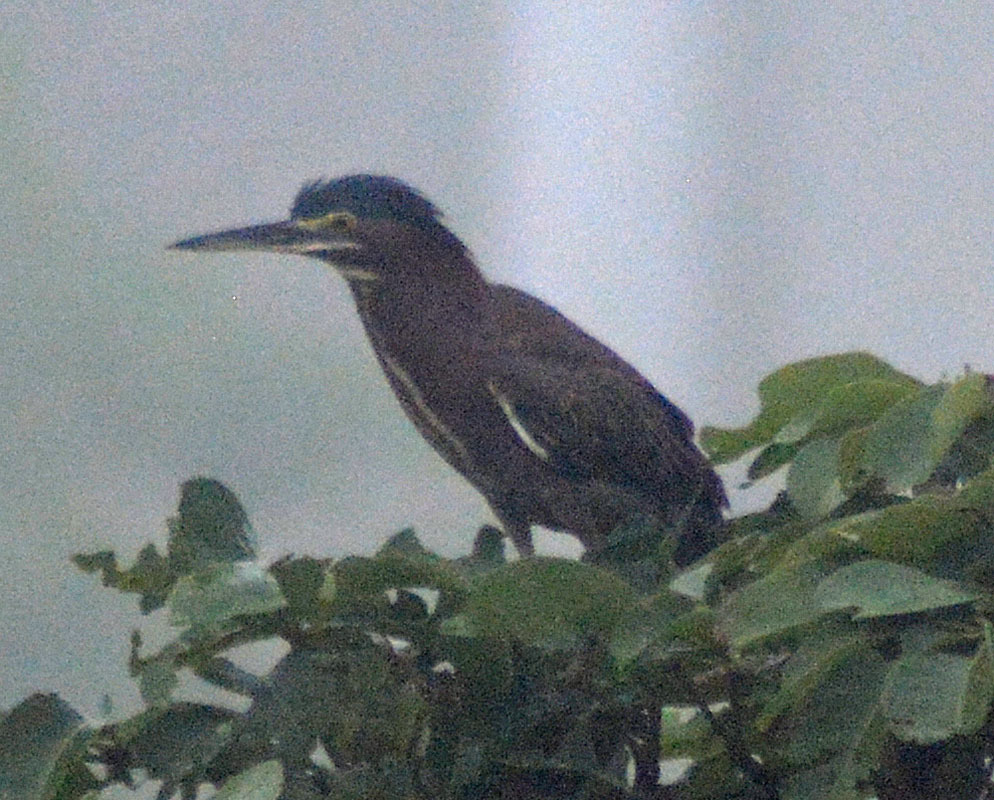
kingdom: Animalia
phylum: Chordata
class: Aves
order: Pelecaniformes
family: Ardeidae
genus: Butorides
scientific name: Butorides virescens
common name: Green heron
